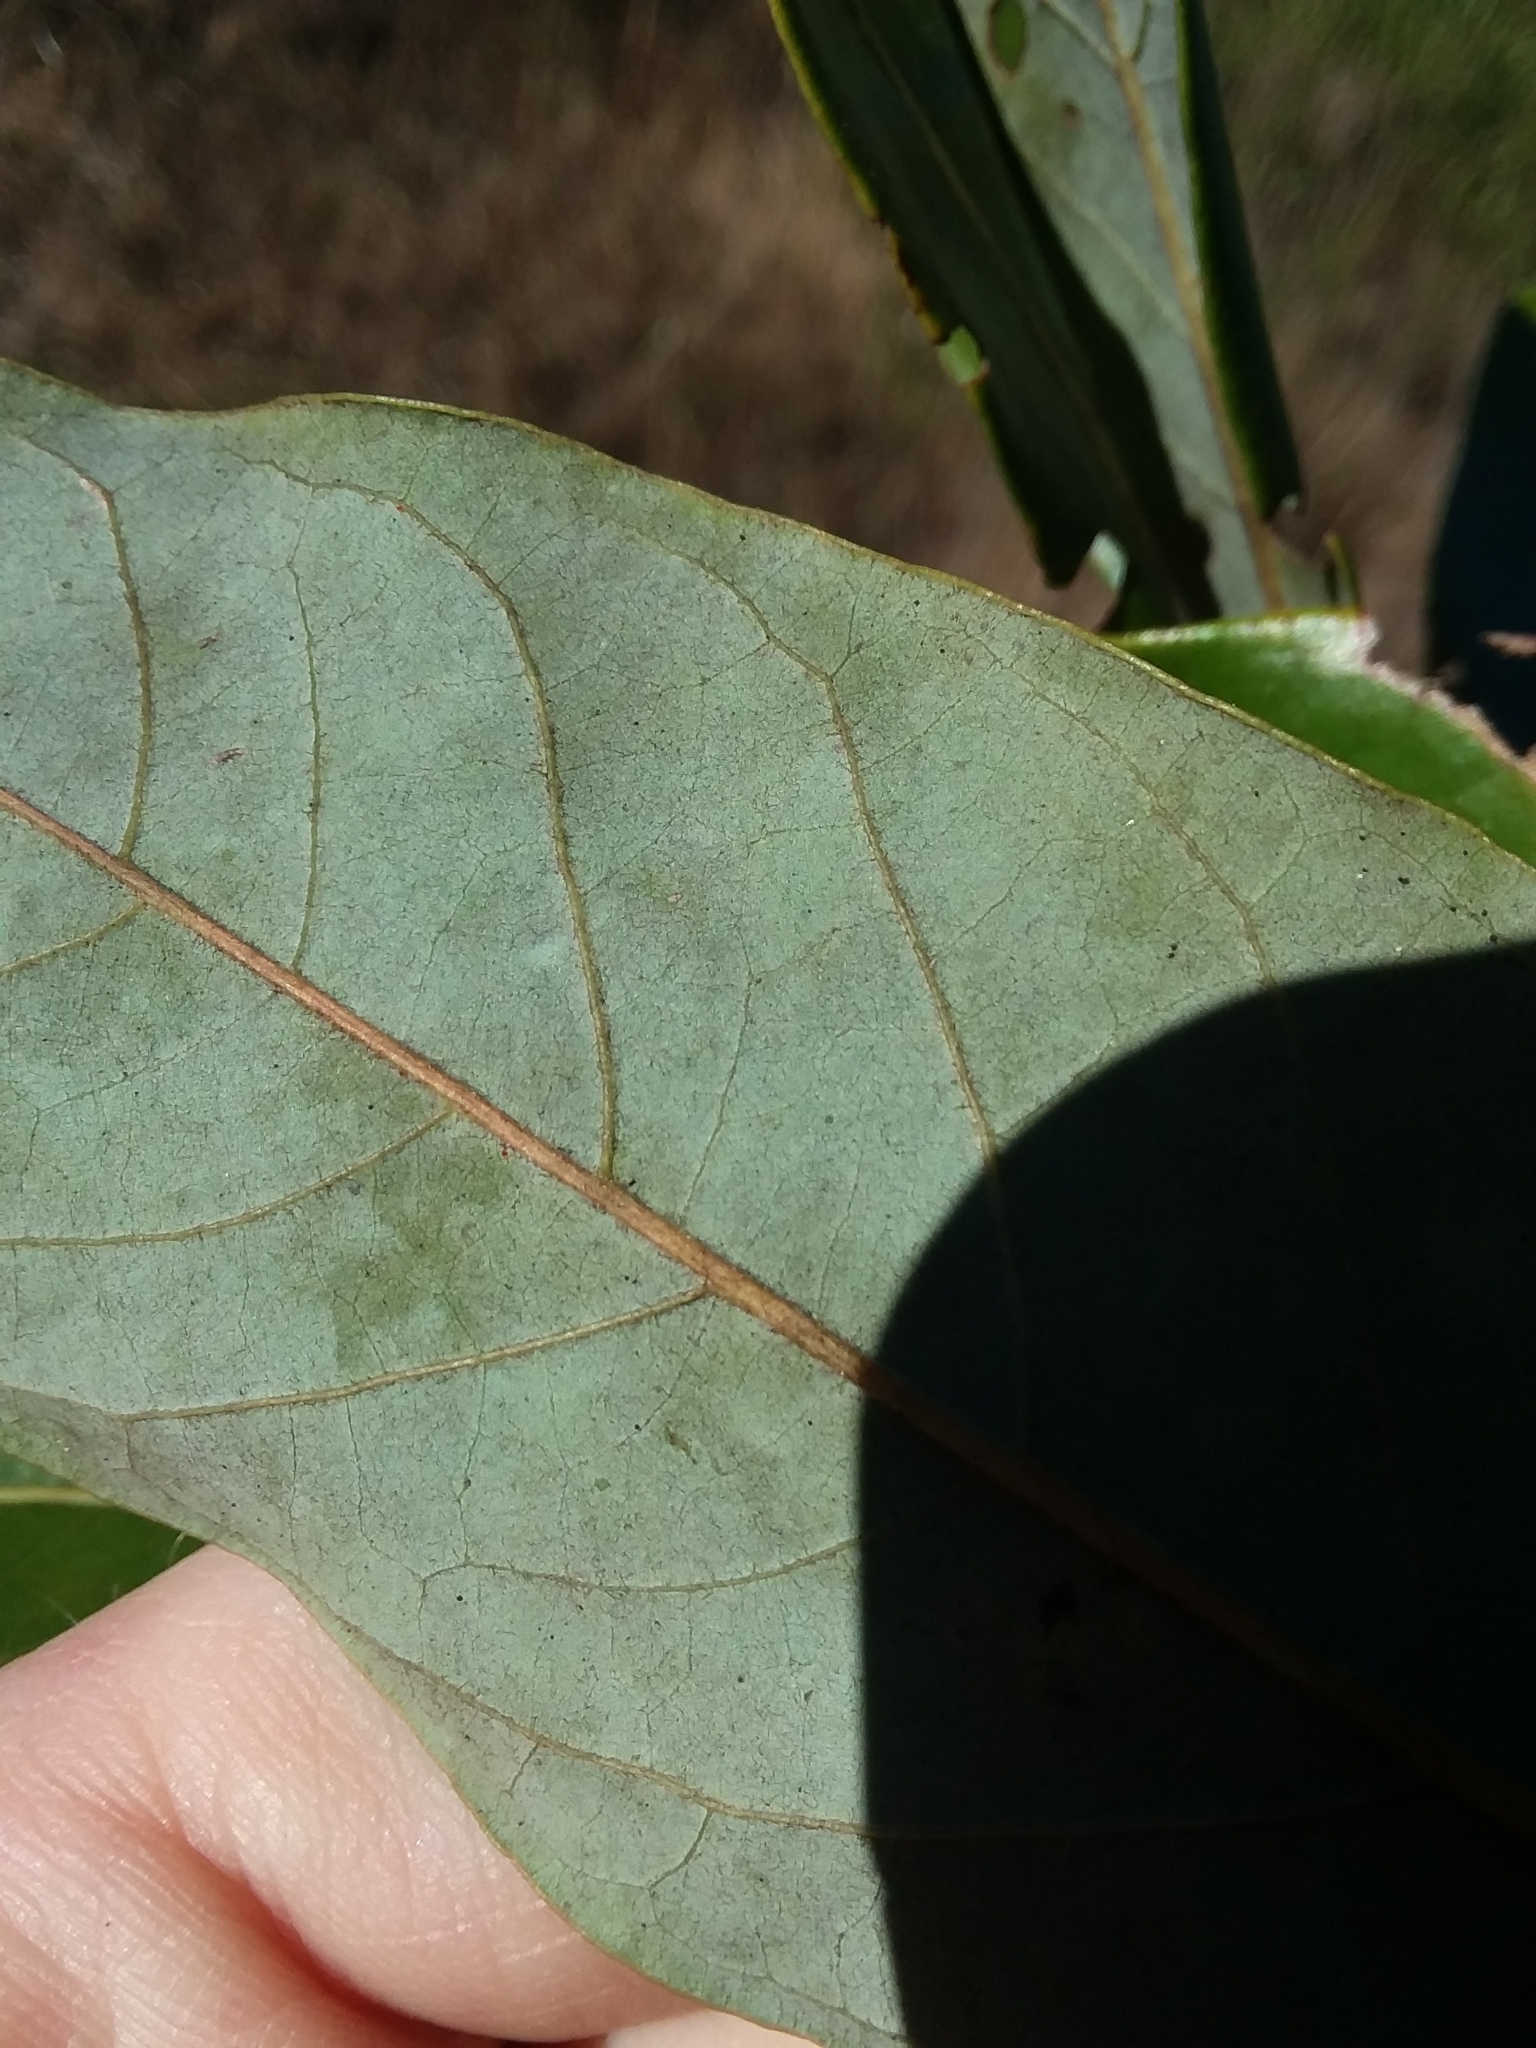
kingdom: Plantae
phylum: Tracheophyta
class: Magnoliopsida
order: Laurales
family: Lauraceae
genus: Persea
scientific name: Persea palustris
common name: Swampbay
